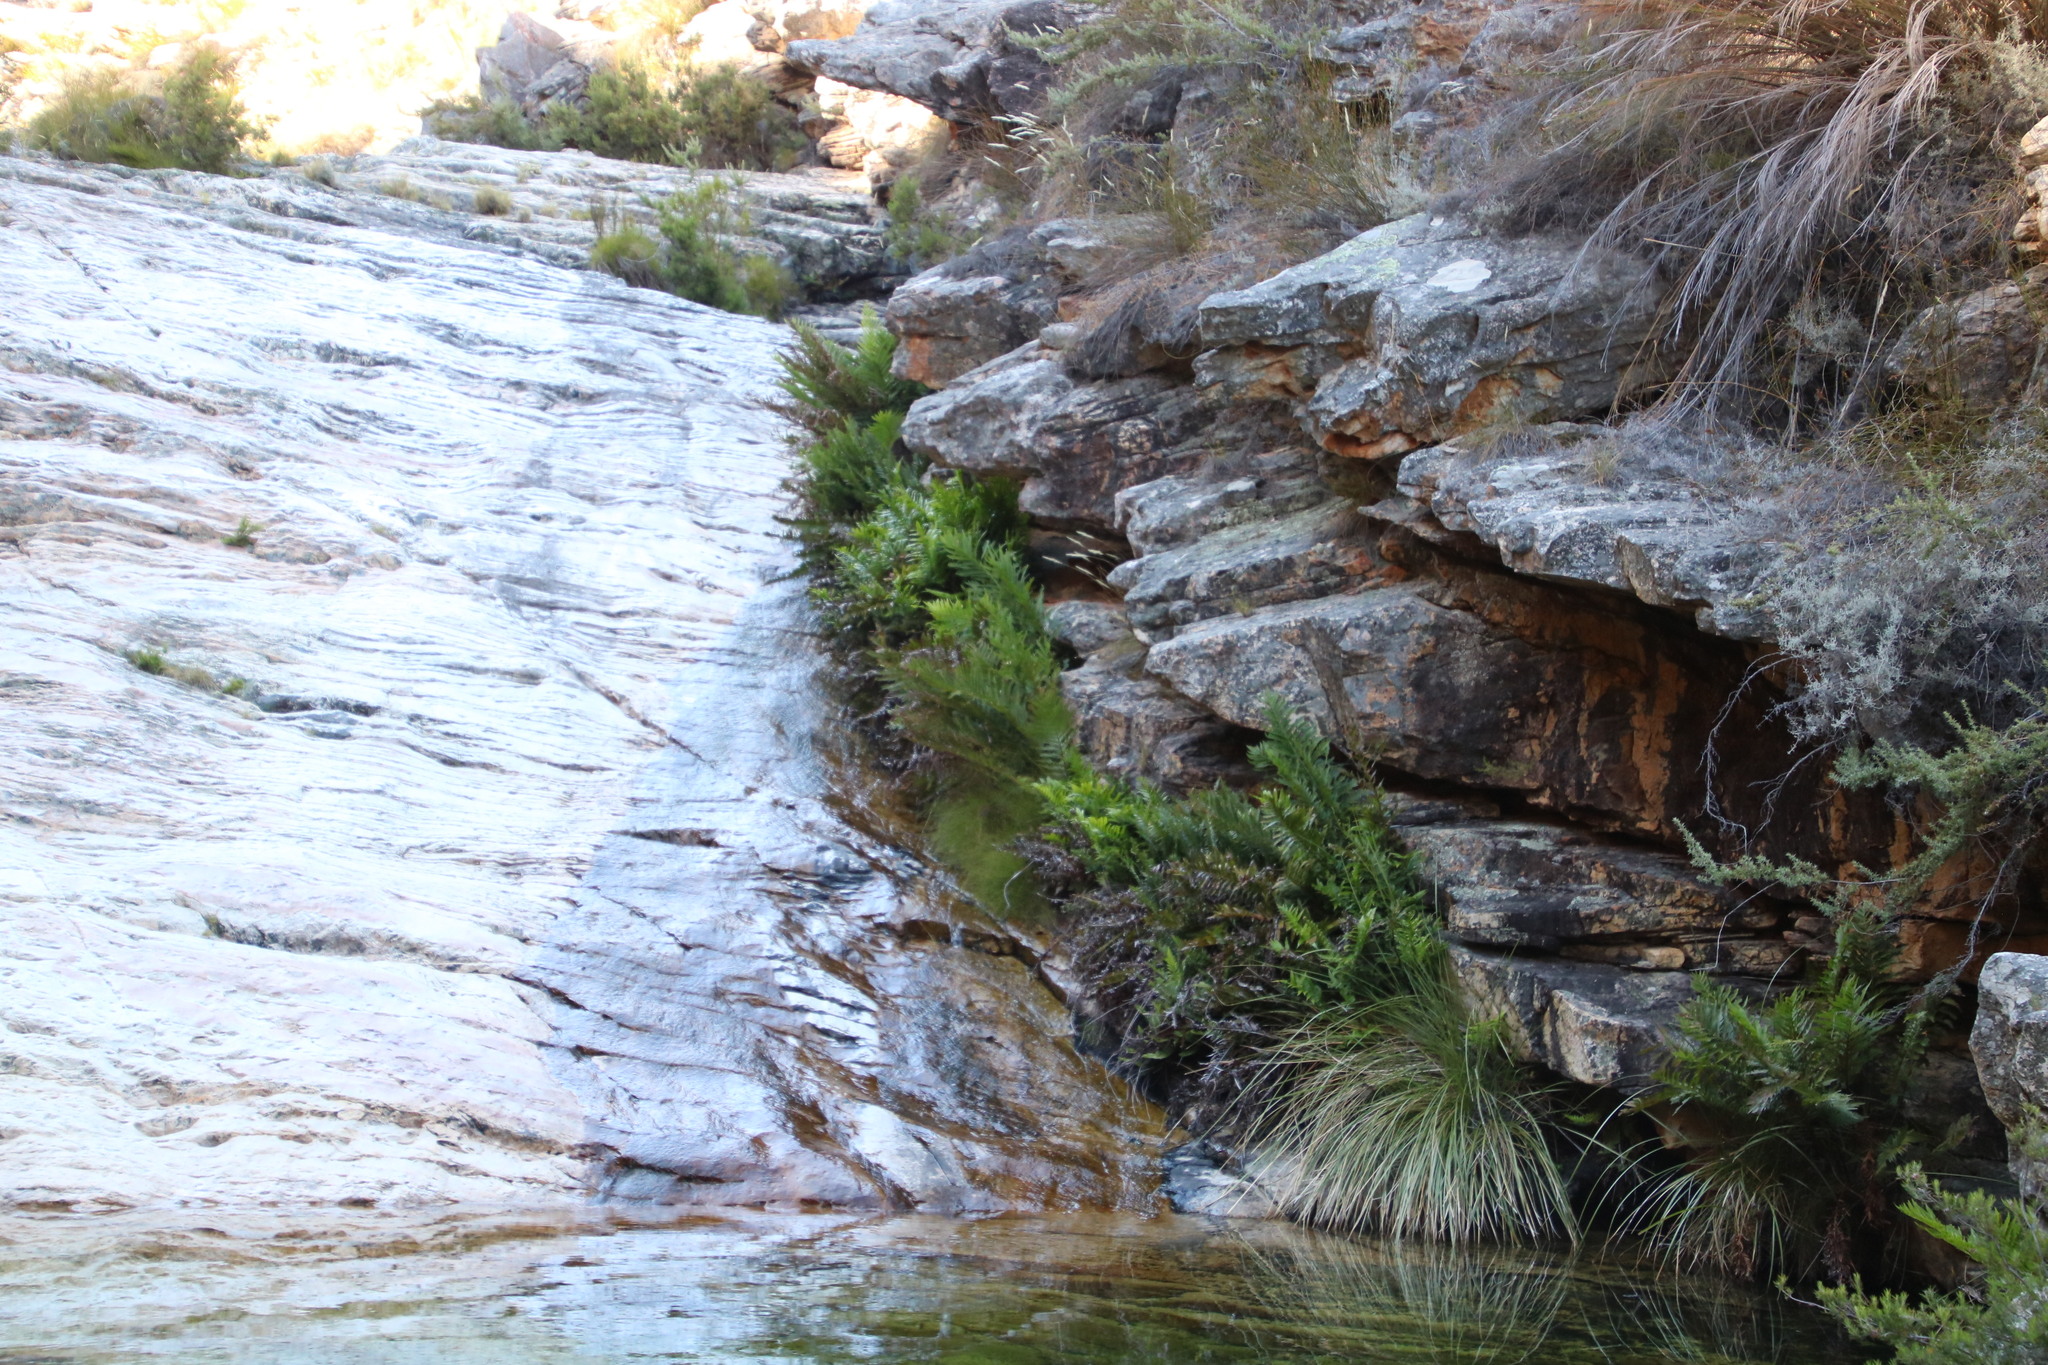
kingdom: Plantae
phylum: Tracheophyta
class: Polypodiopsida
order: Osmundales
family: Osmundaceae
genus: Todea
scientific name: Todea barbara
